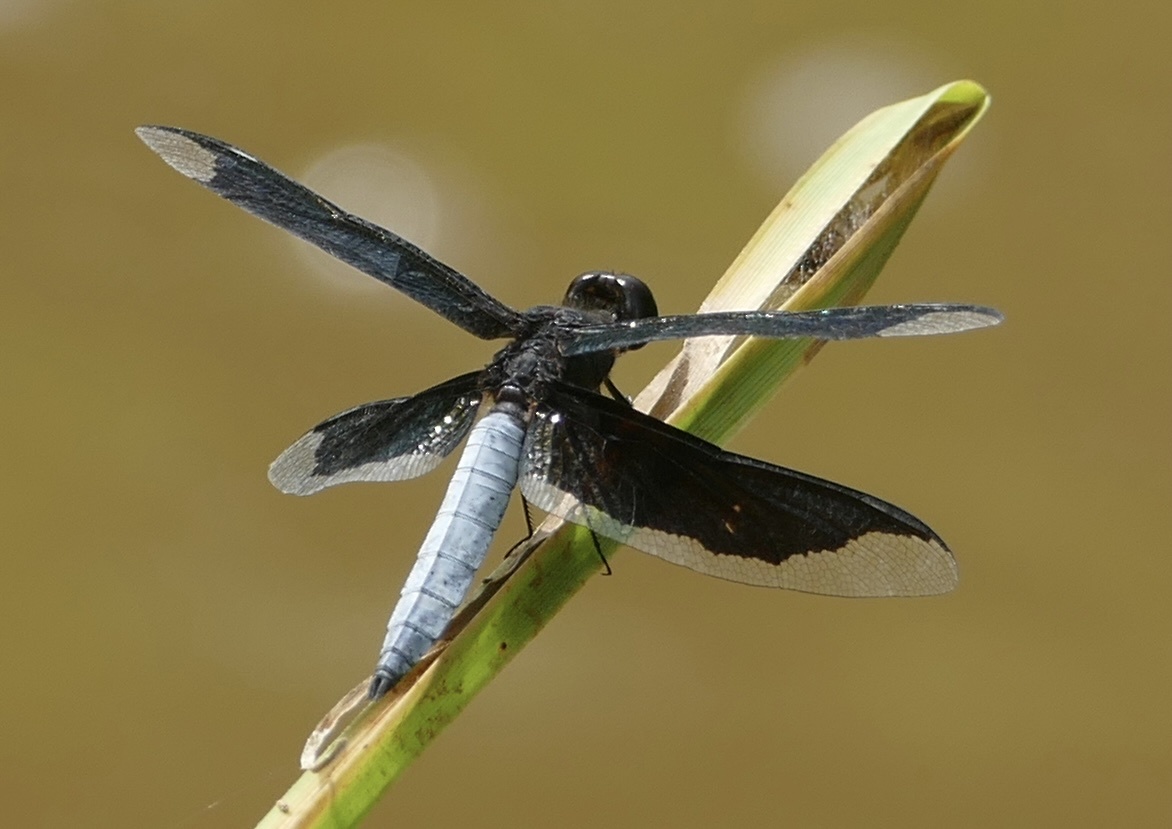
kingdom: Animalia
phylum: Arthropoda
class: Insecta
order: Odonata
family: Libellulidae
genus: Palpopleura
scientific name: Palpopleura lucia
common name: Lucia widow
